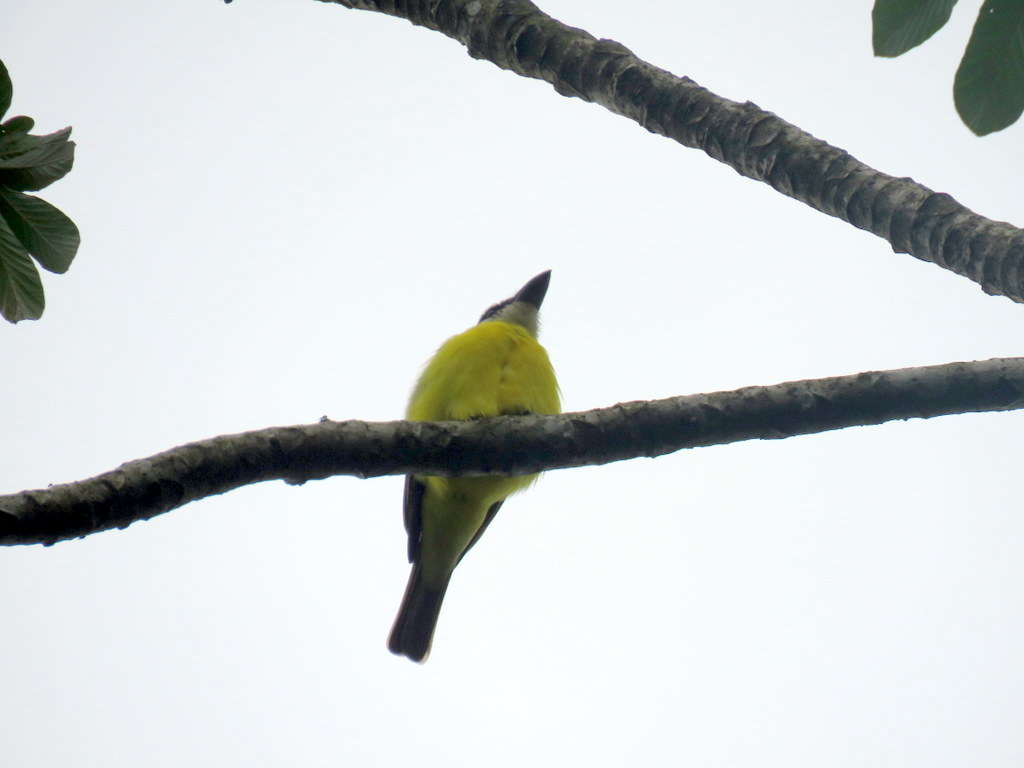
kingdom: Animalia
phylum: Chordata
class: Aves
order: Passeriformes
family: Tyrannidae
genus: Megarynchus
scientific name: Megarynchus pitangua
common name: Boat-billed flycatcher
